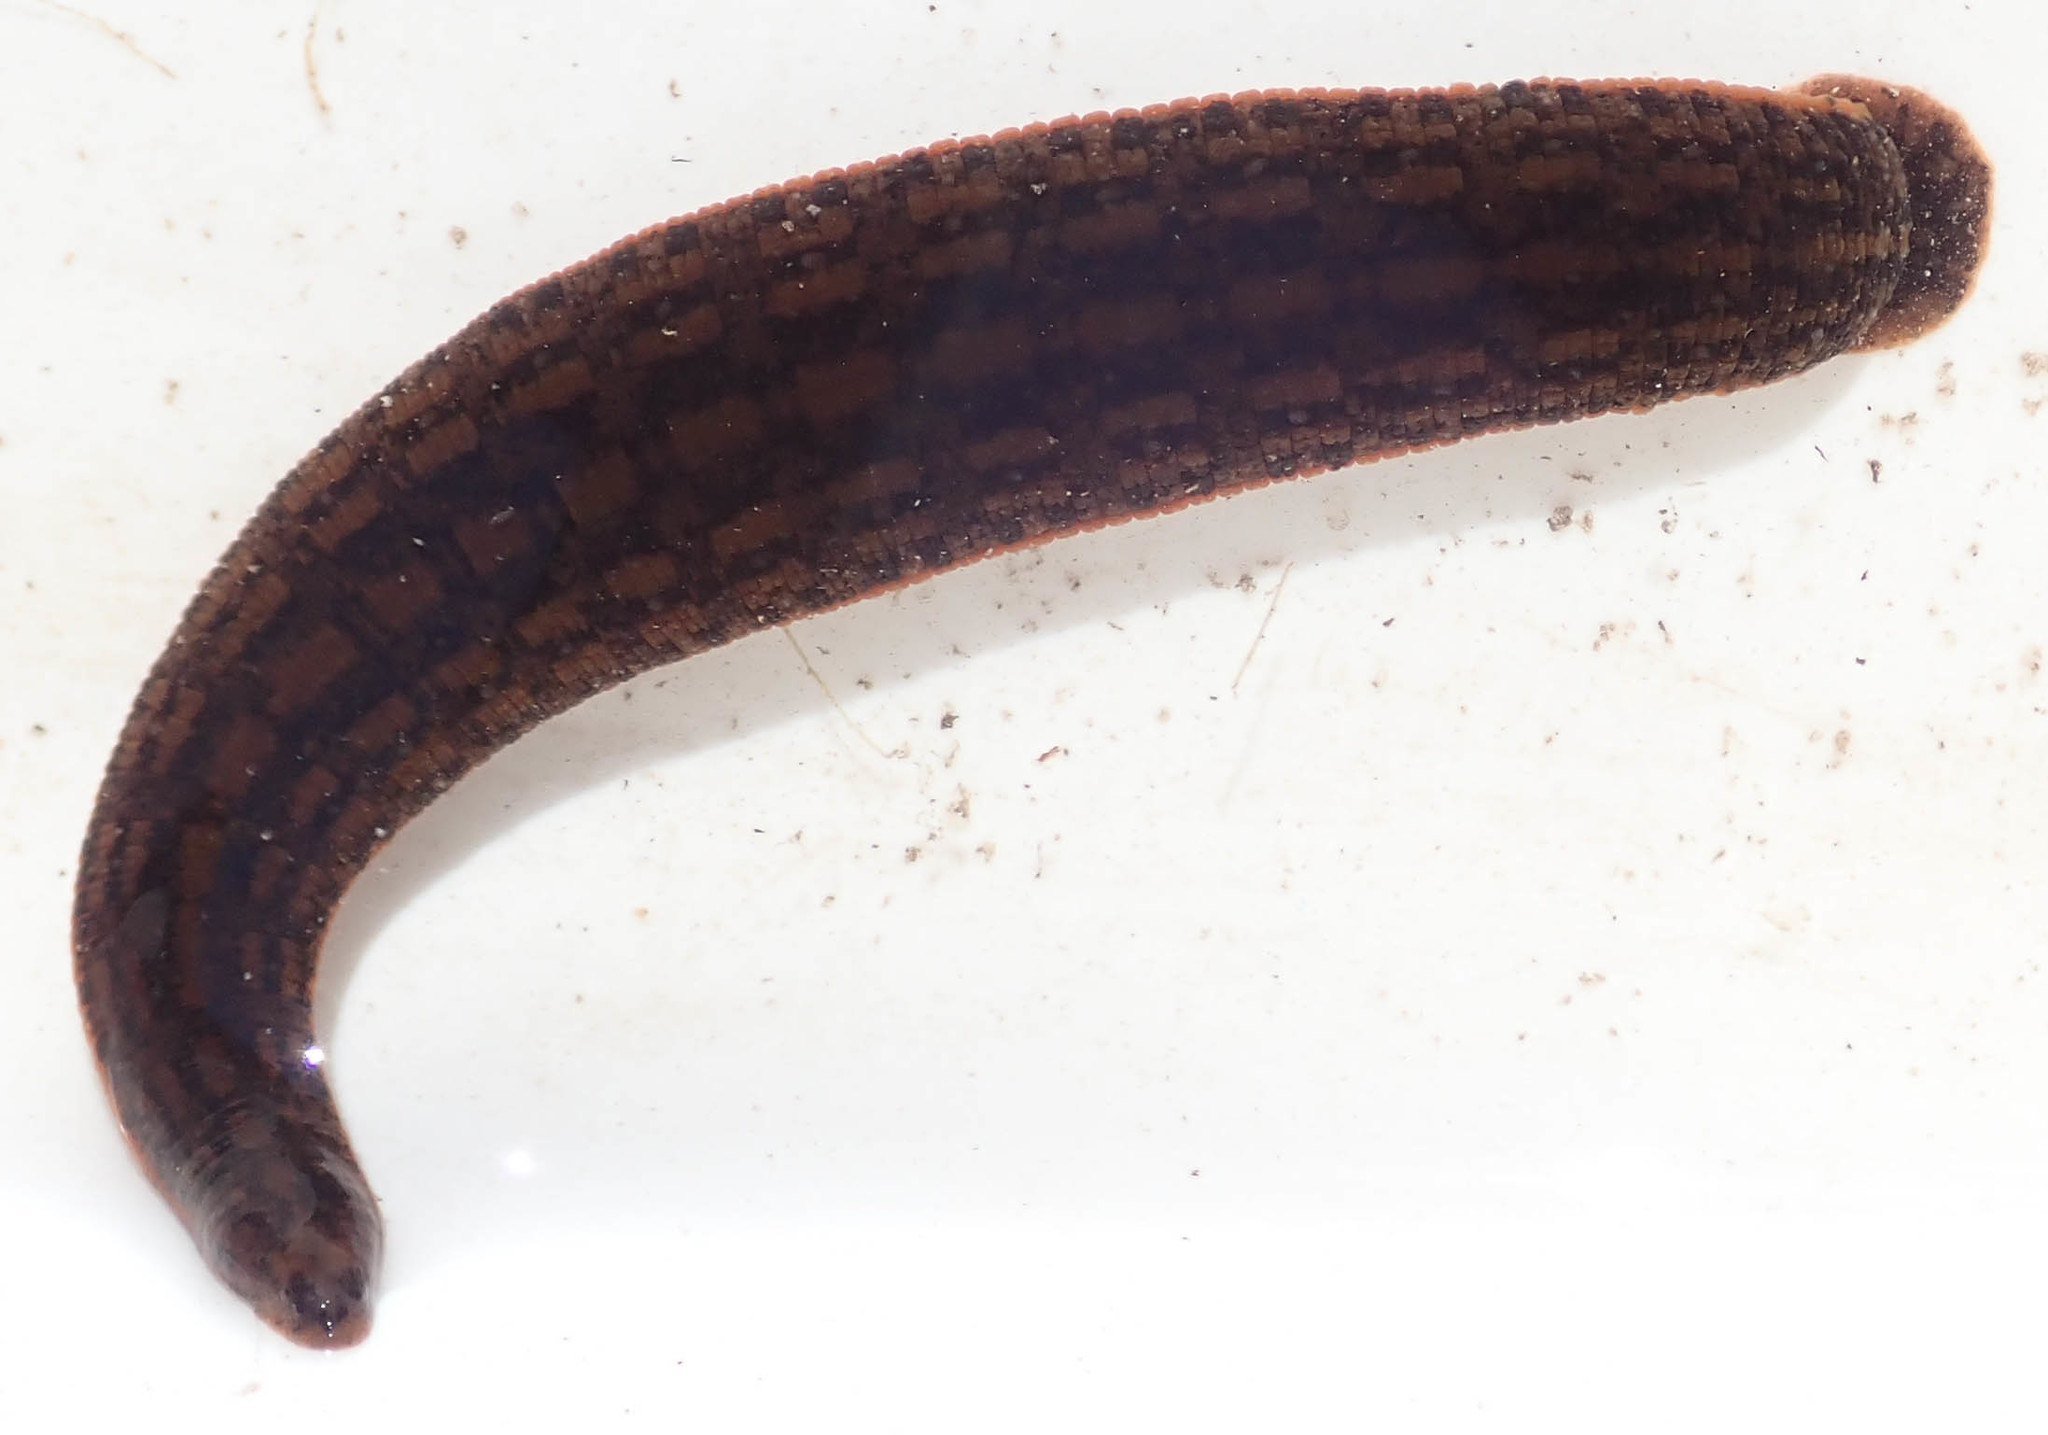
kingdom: Animalia
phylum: Annelida
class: Clitellata
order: Arhynchobdellida
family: Hirudinidae
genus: Asiaticobdella
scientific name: Asiaticobdella fenestrata
